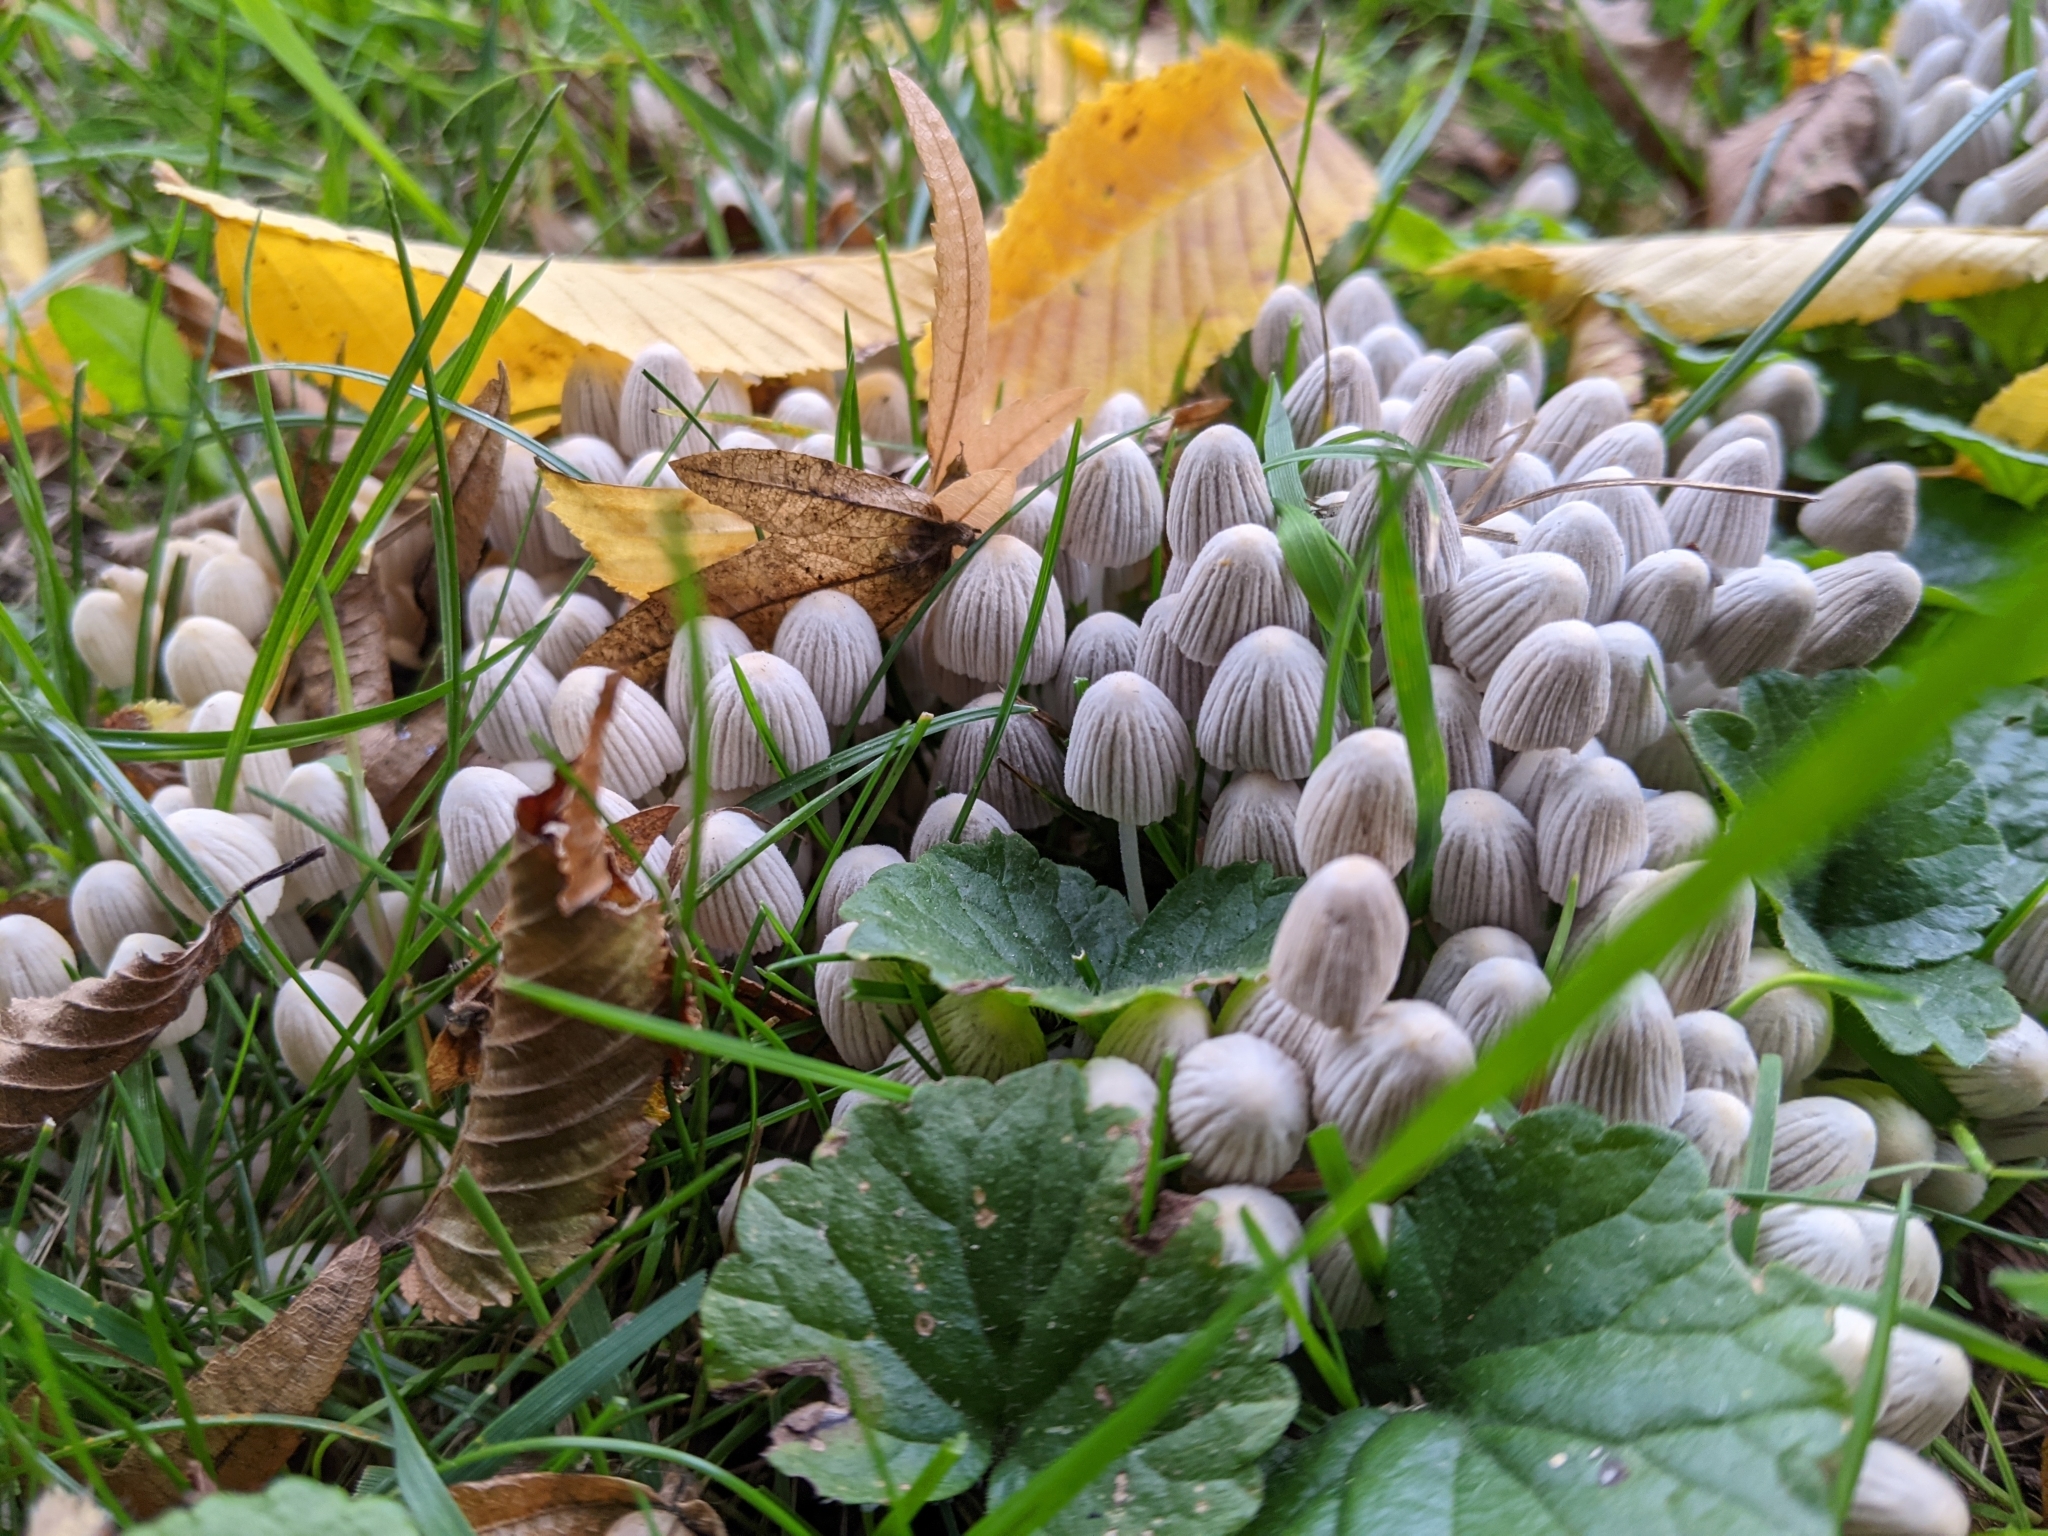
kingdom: Fungi
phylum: Basidiomycota
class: Agaricomycetes
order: Agaricales
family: Psathyrellaceae
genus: Coprinellus
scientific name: Coprinellus disseminatus
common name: Fairies' bonnets
